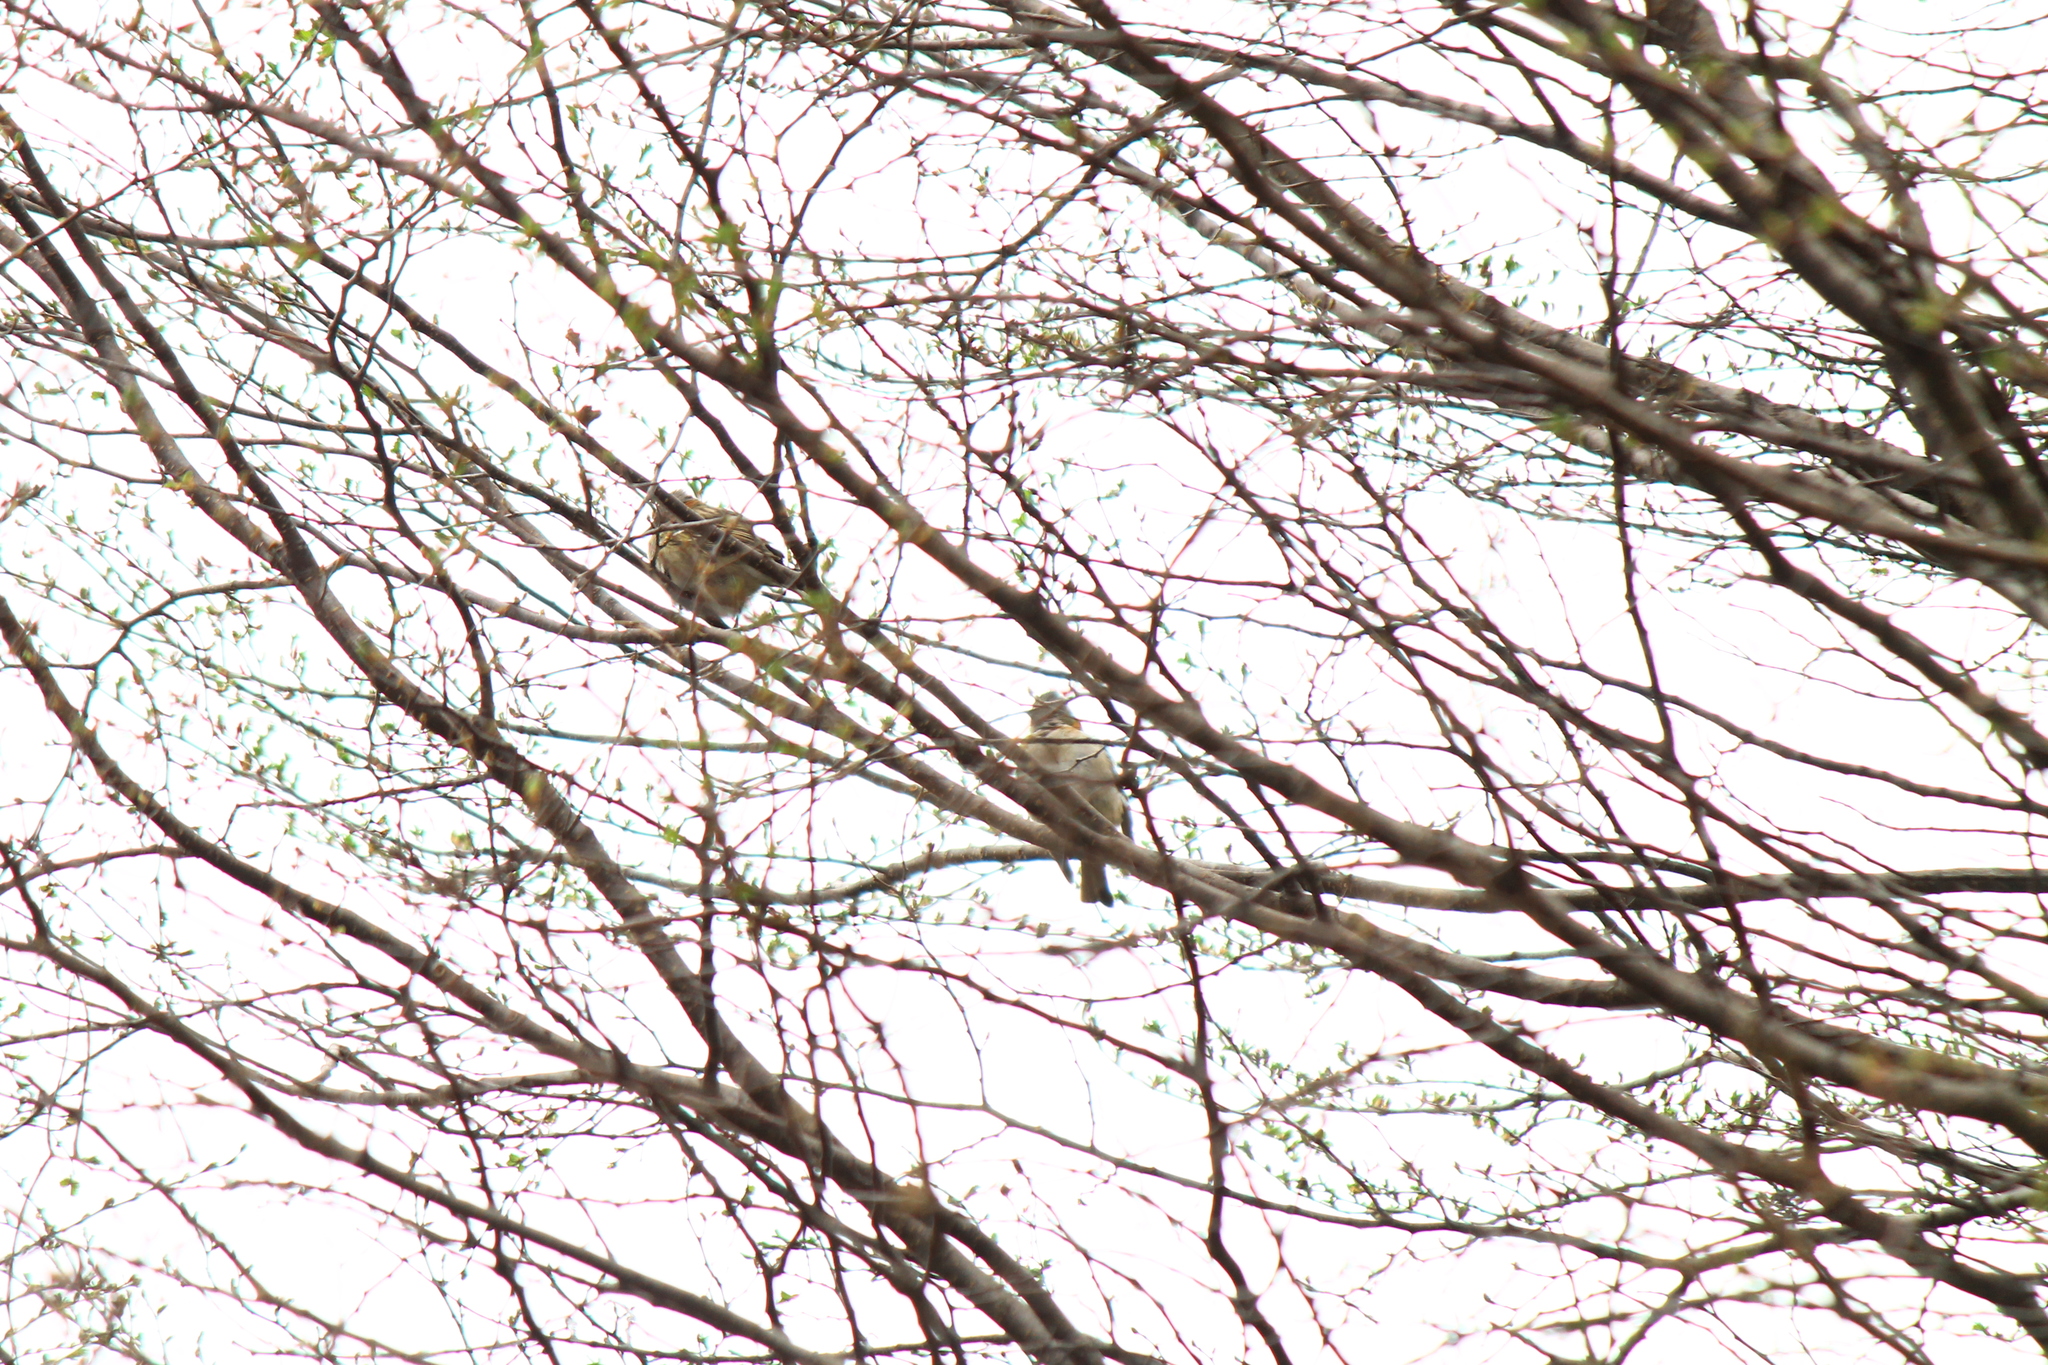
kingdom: Animalia
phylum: Chordata
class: Aves
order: Passeriformes
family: Passerellidae
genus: Zonotrichia
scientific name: Zonotrichia capensis
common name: Rufous-collared sparrow
